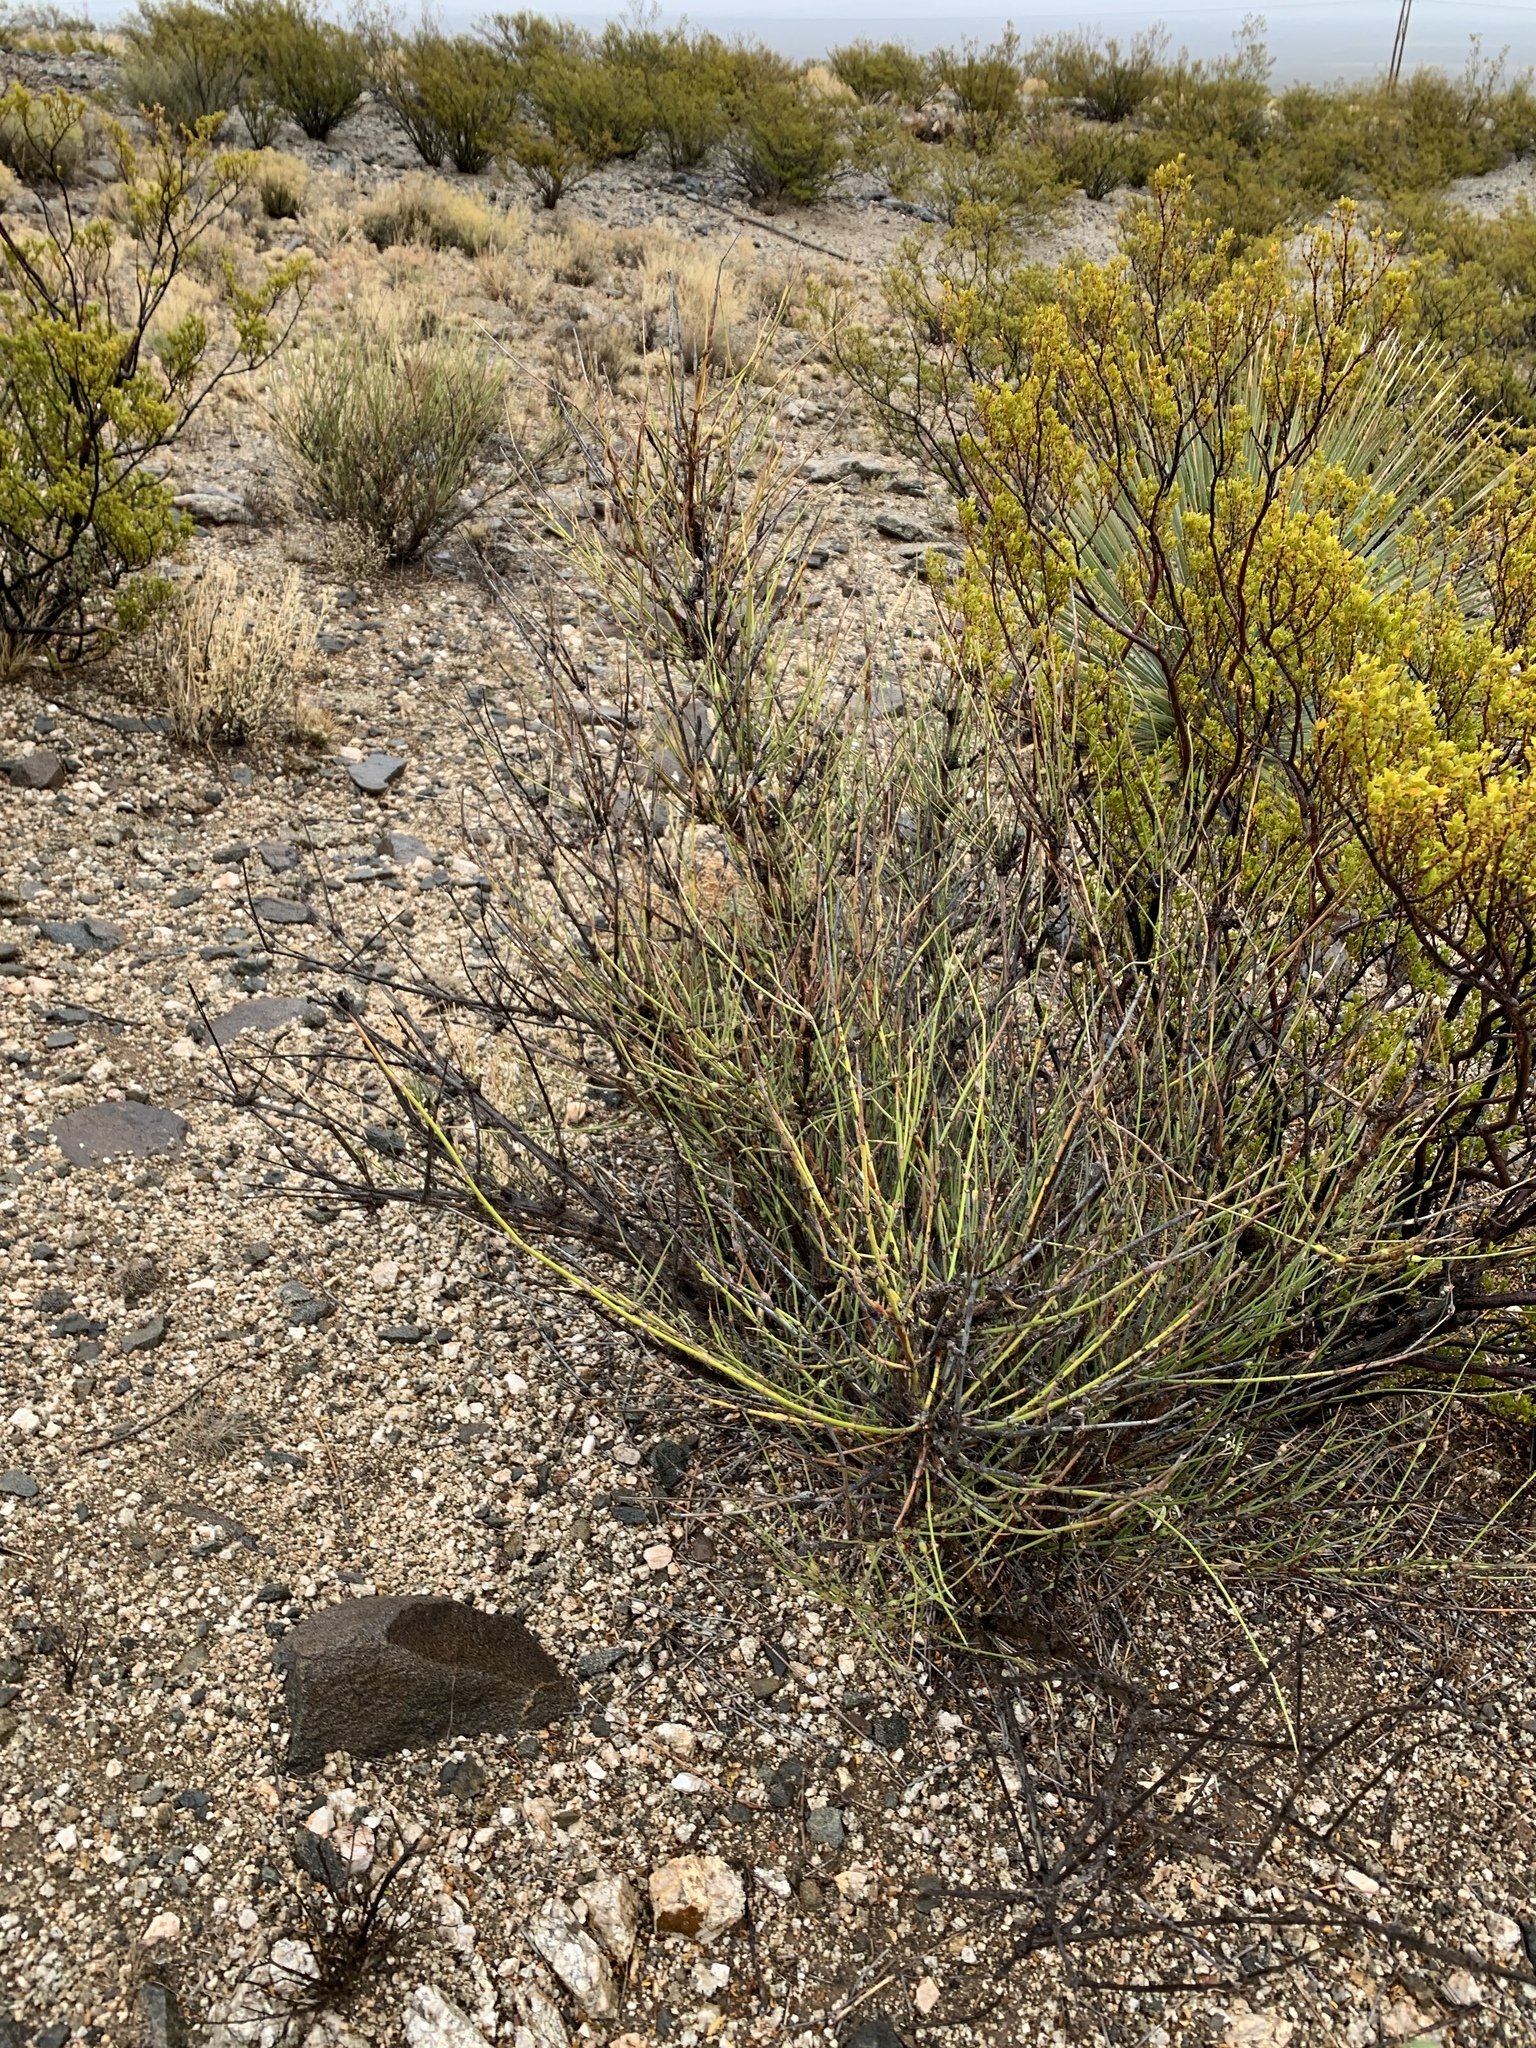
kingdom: Plantae
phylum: Tracheophyta
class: Gnetopsida
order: Ephedrales
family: Ephedraceae
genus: Ephedra
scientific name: Ephedra trifurca
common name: Mexican-tea
